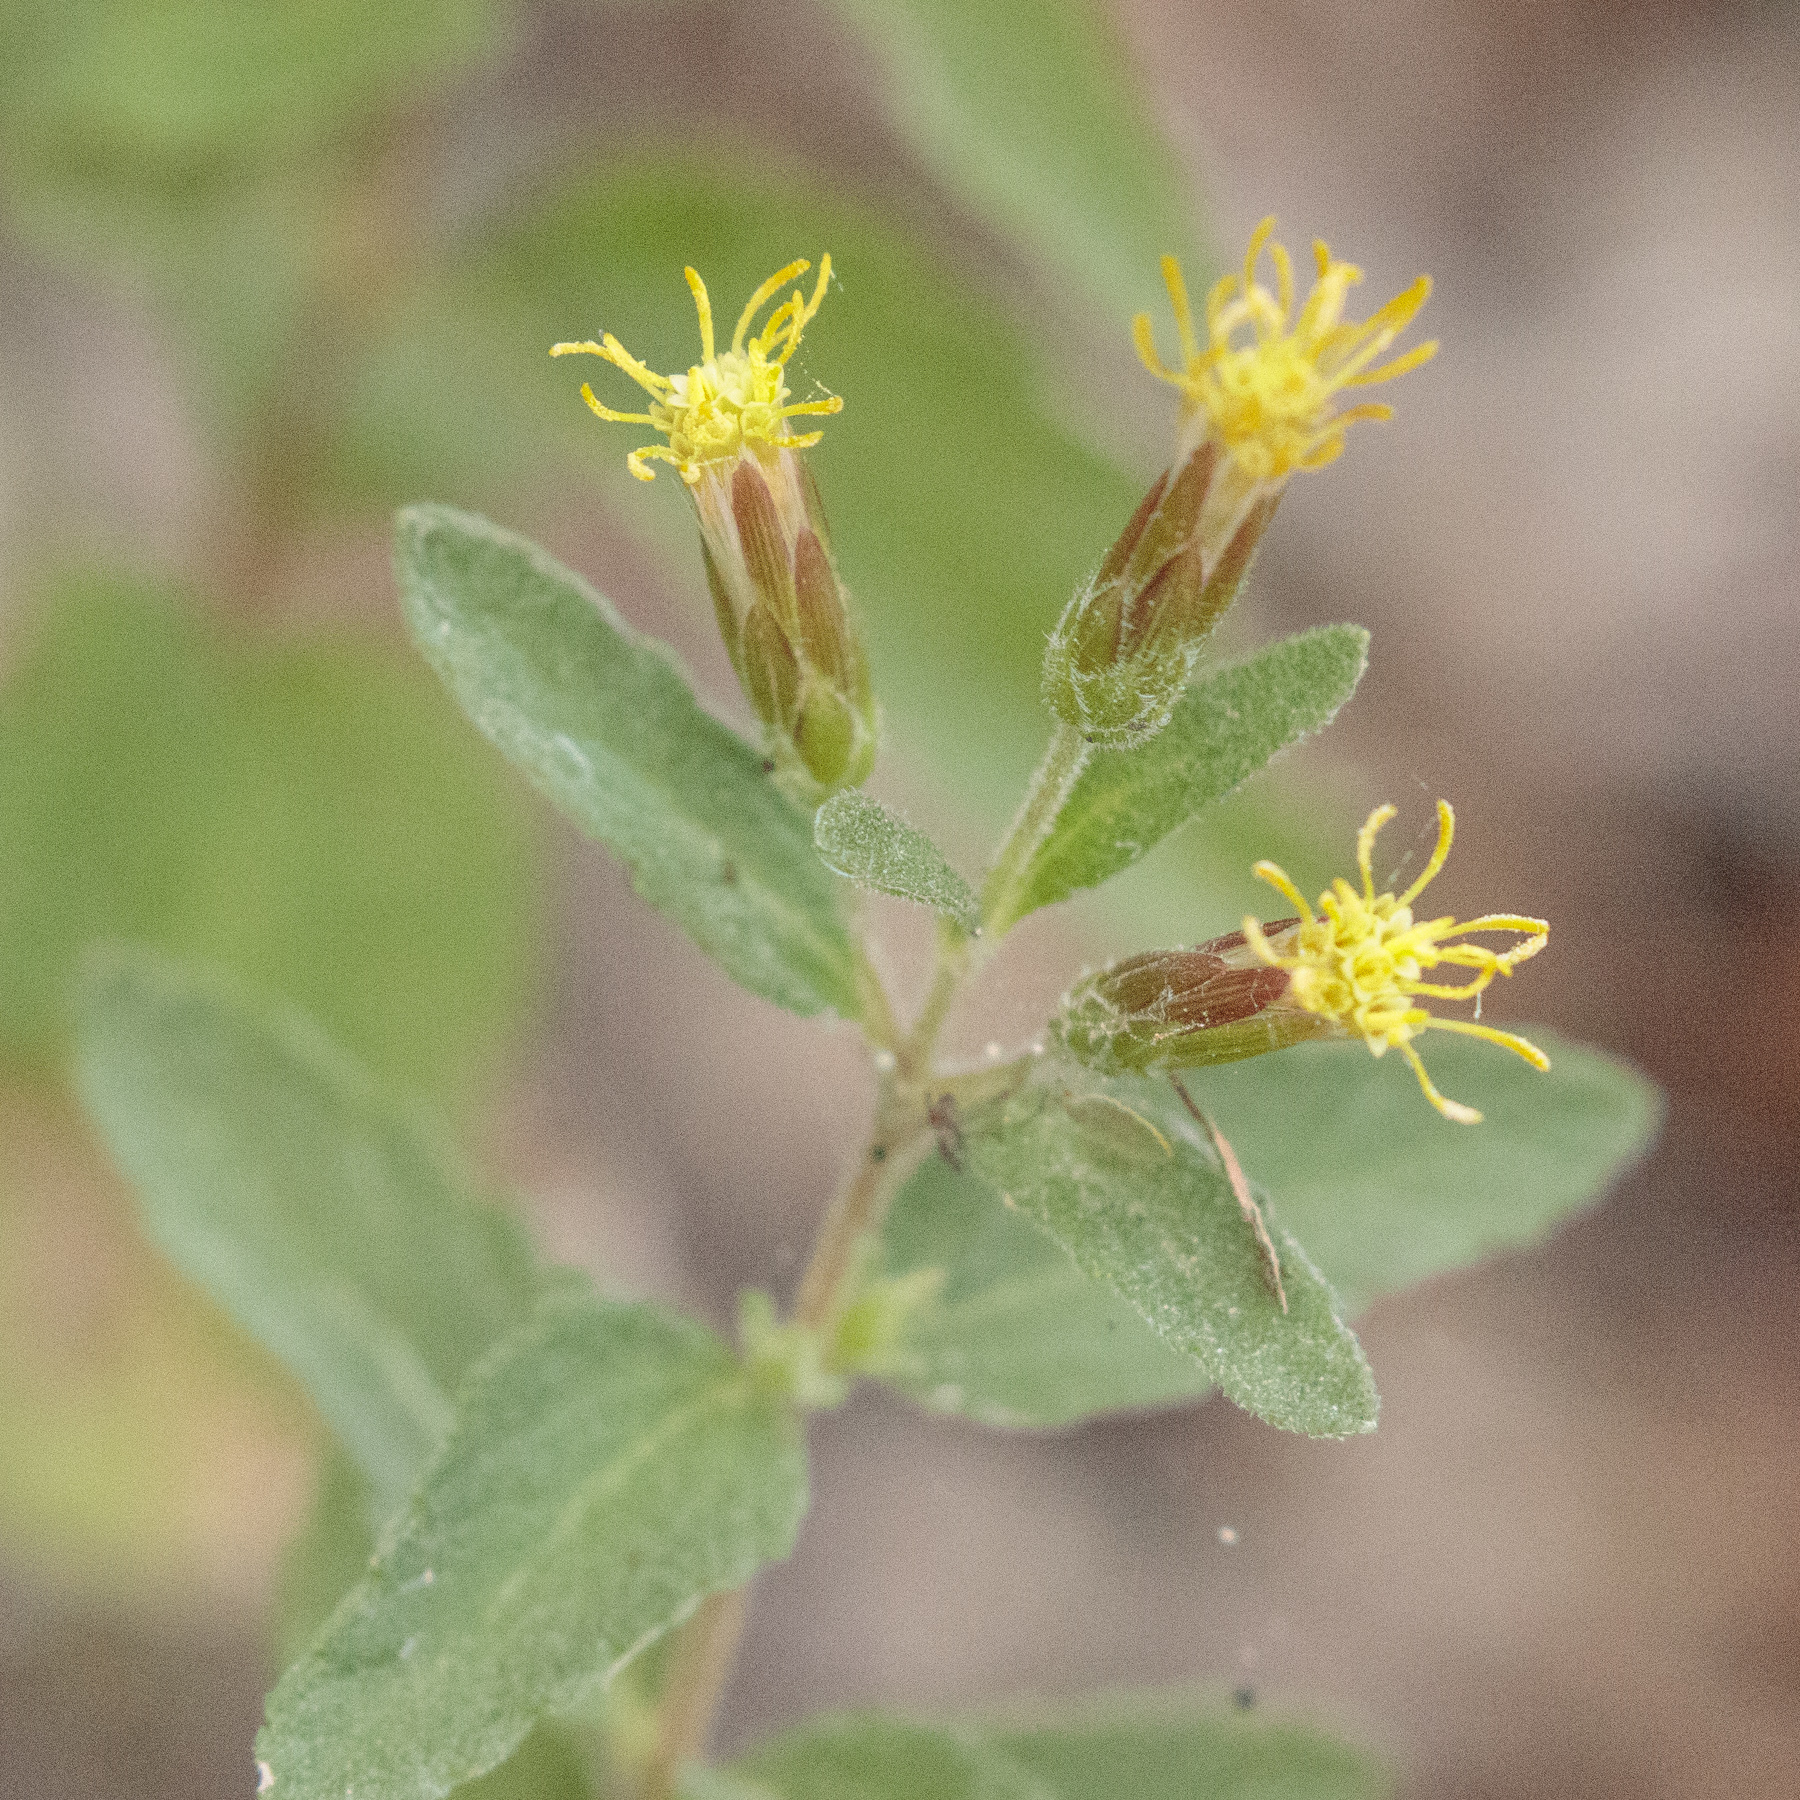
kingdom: Plantae
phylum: Tracheophyta
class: Magnoliopsida
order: Asterales
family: Asteraceae
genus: Brickellia
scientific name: Brickellia cylindracea
